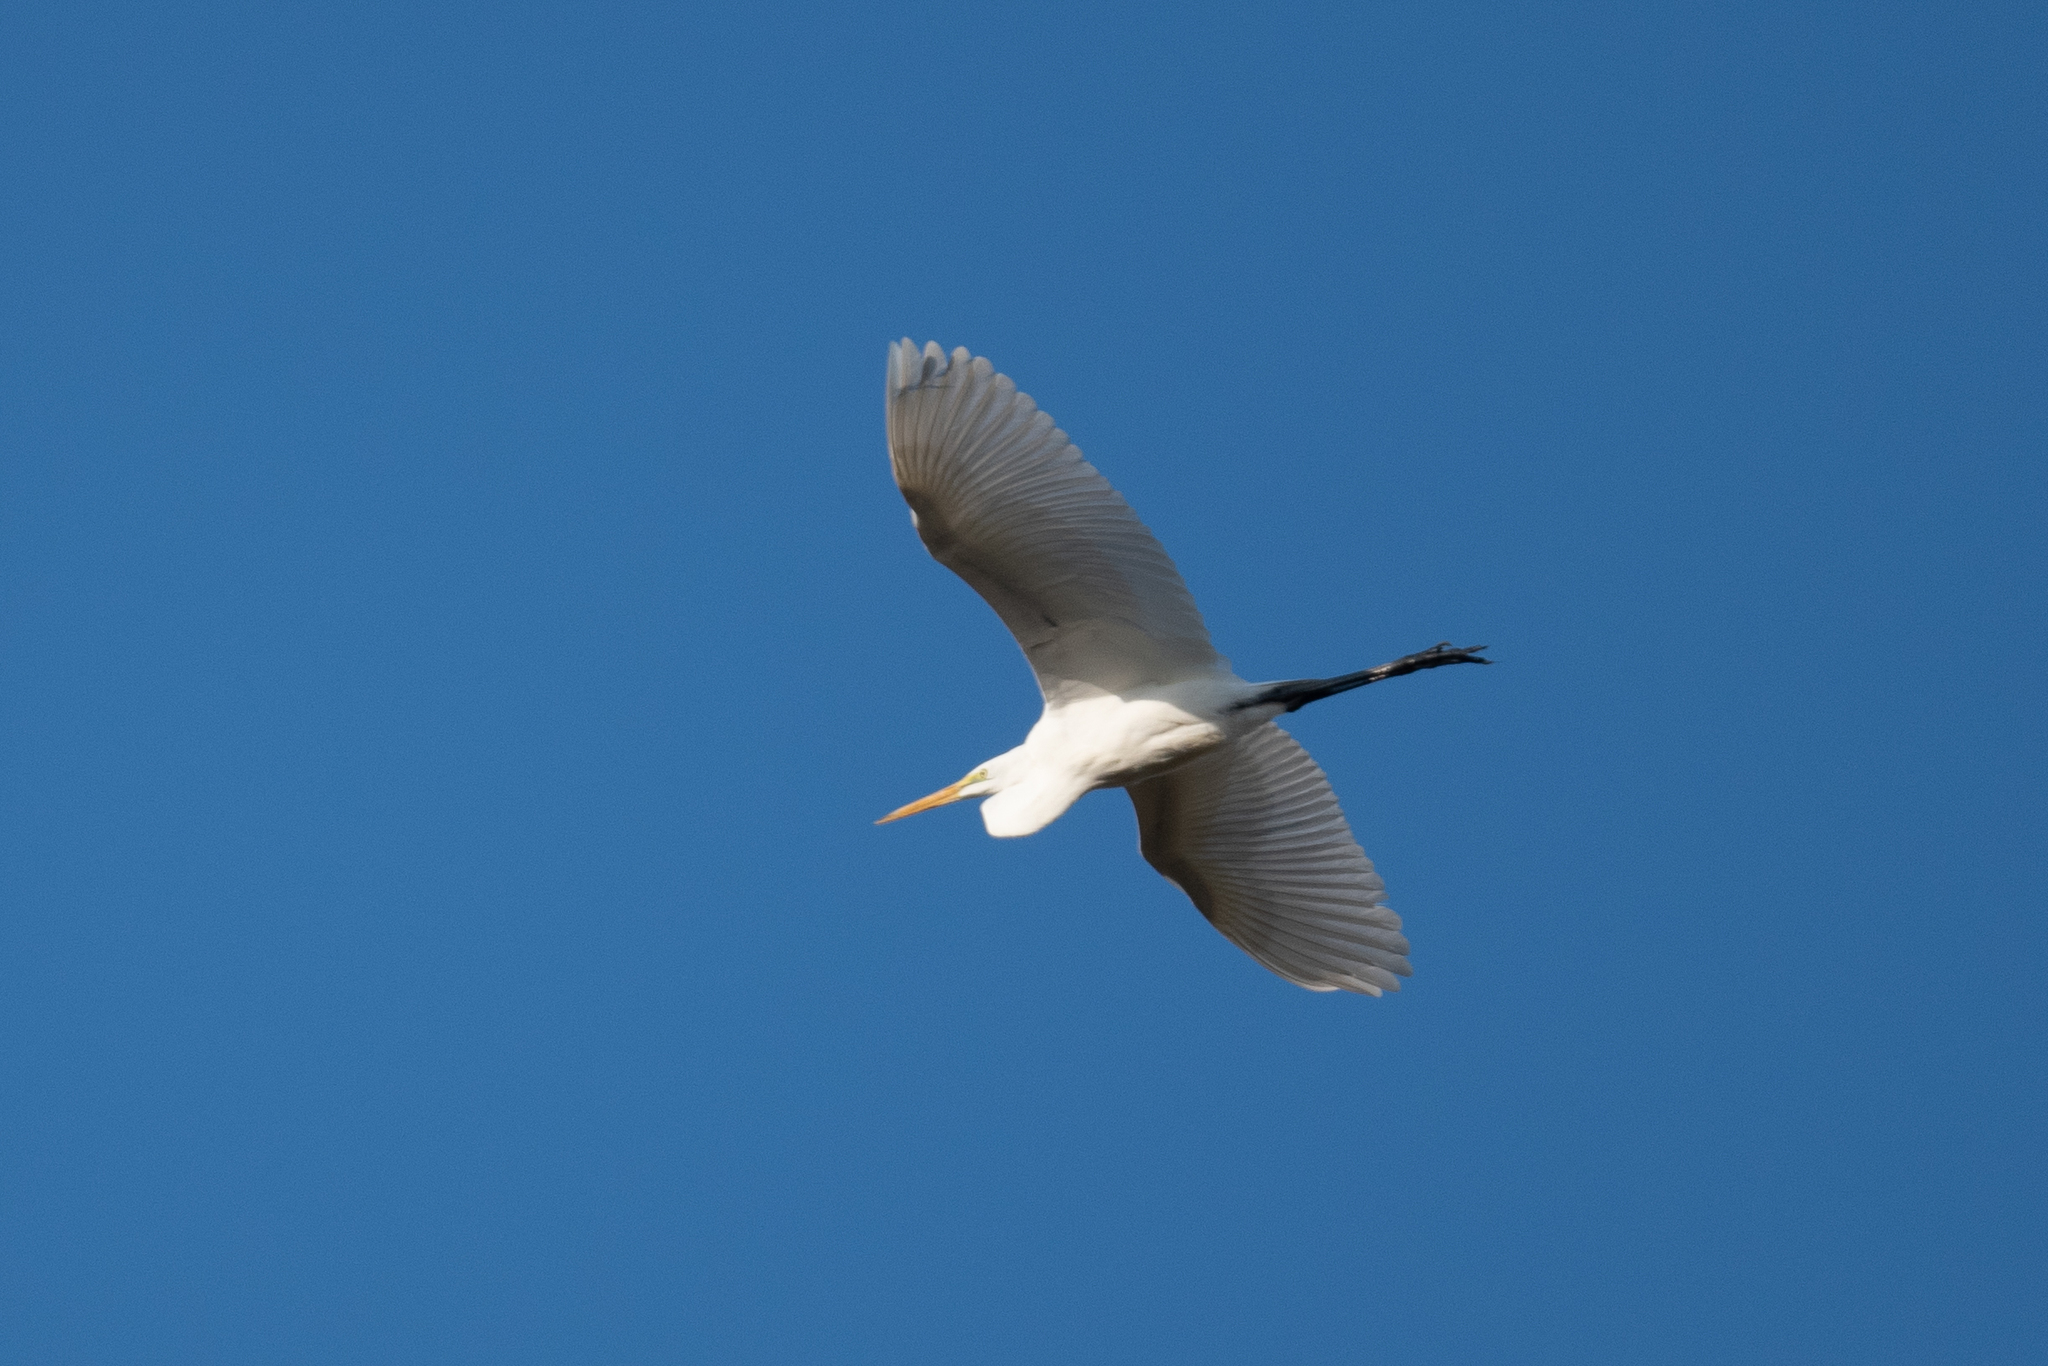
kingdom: Animalia
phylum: Chordata
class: Aves
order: Pelecaniformes
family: Ardeidae
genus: Ardea
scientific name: Ardea alba
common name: Great egret
